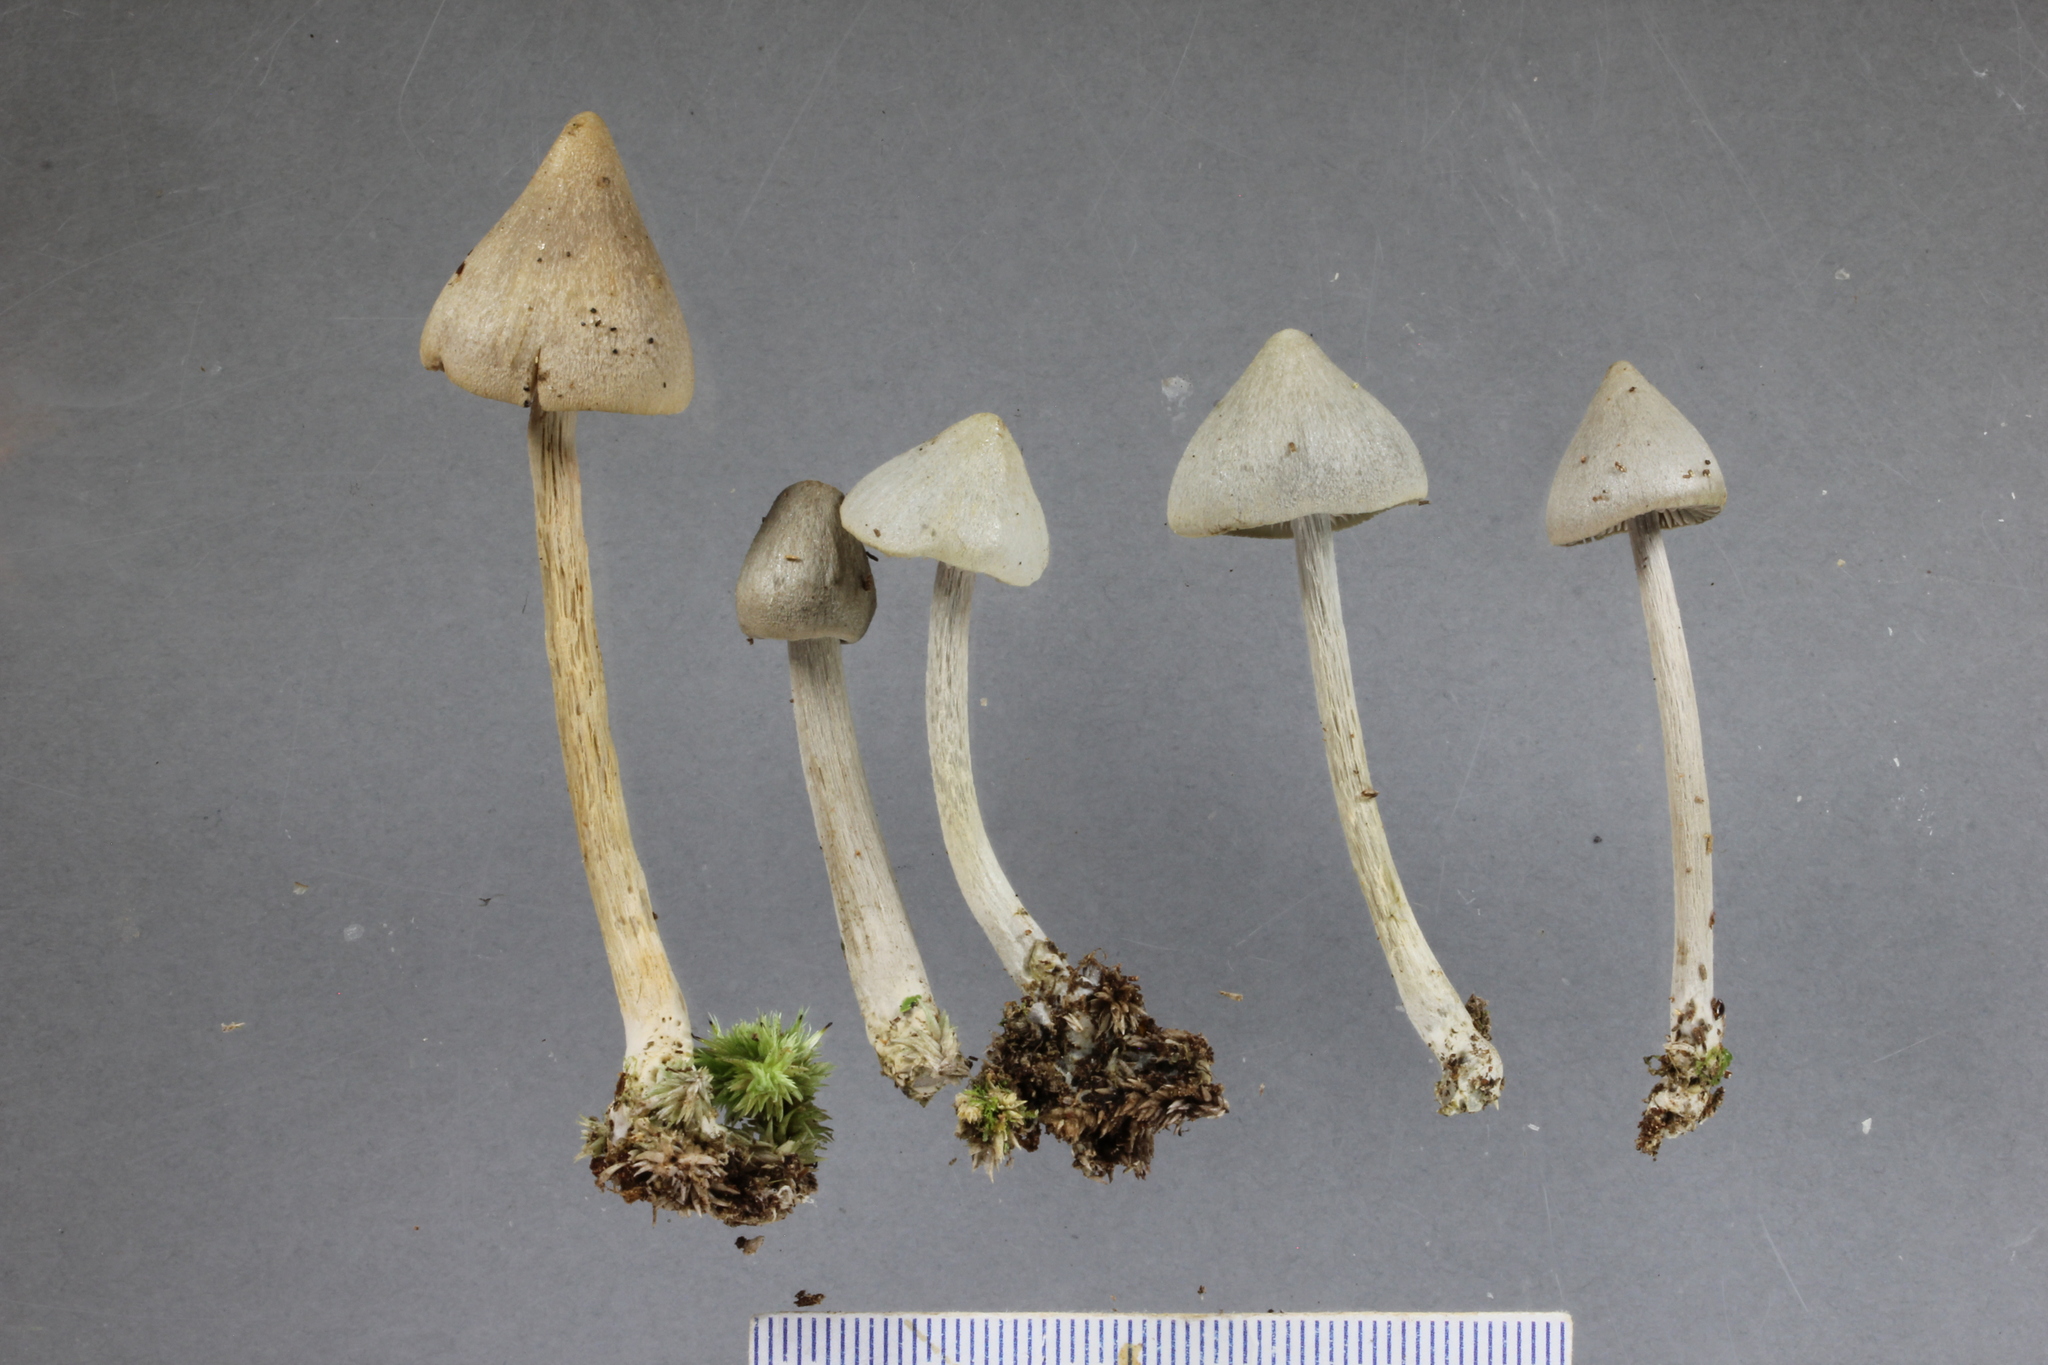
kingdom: Fungi
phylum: Basidiomycota
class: Agaricomycetes
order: Agaricales
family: Entolomataceae
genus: Entoloma
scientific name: Entoloma hochstetteri
